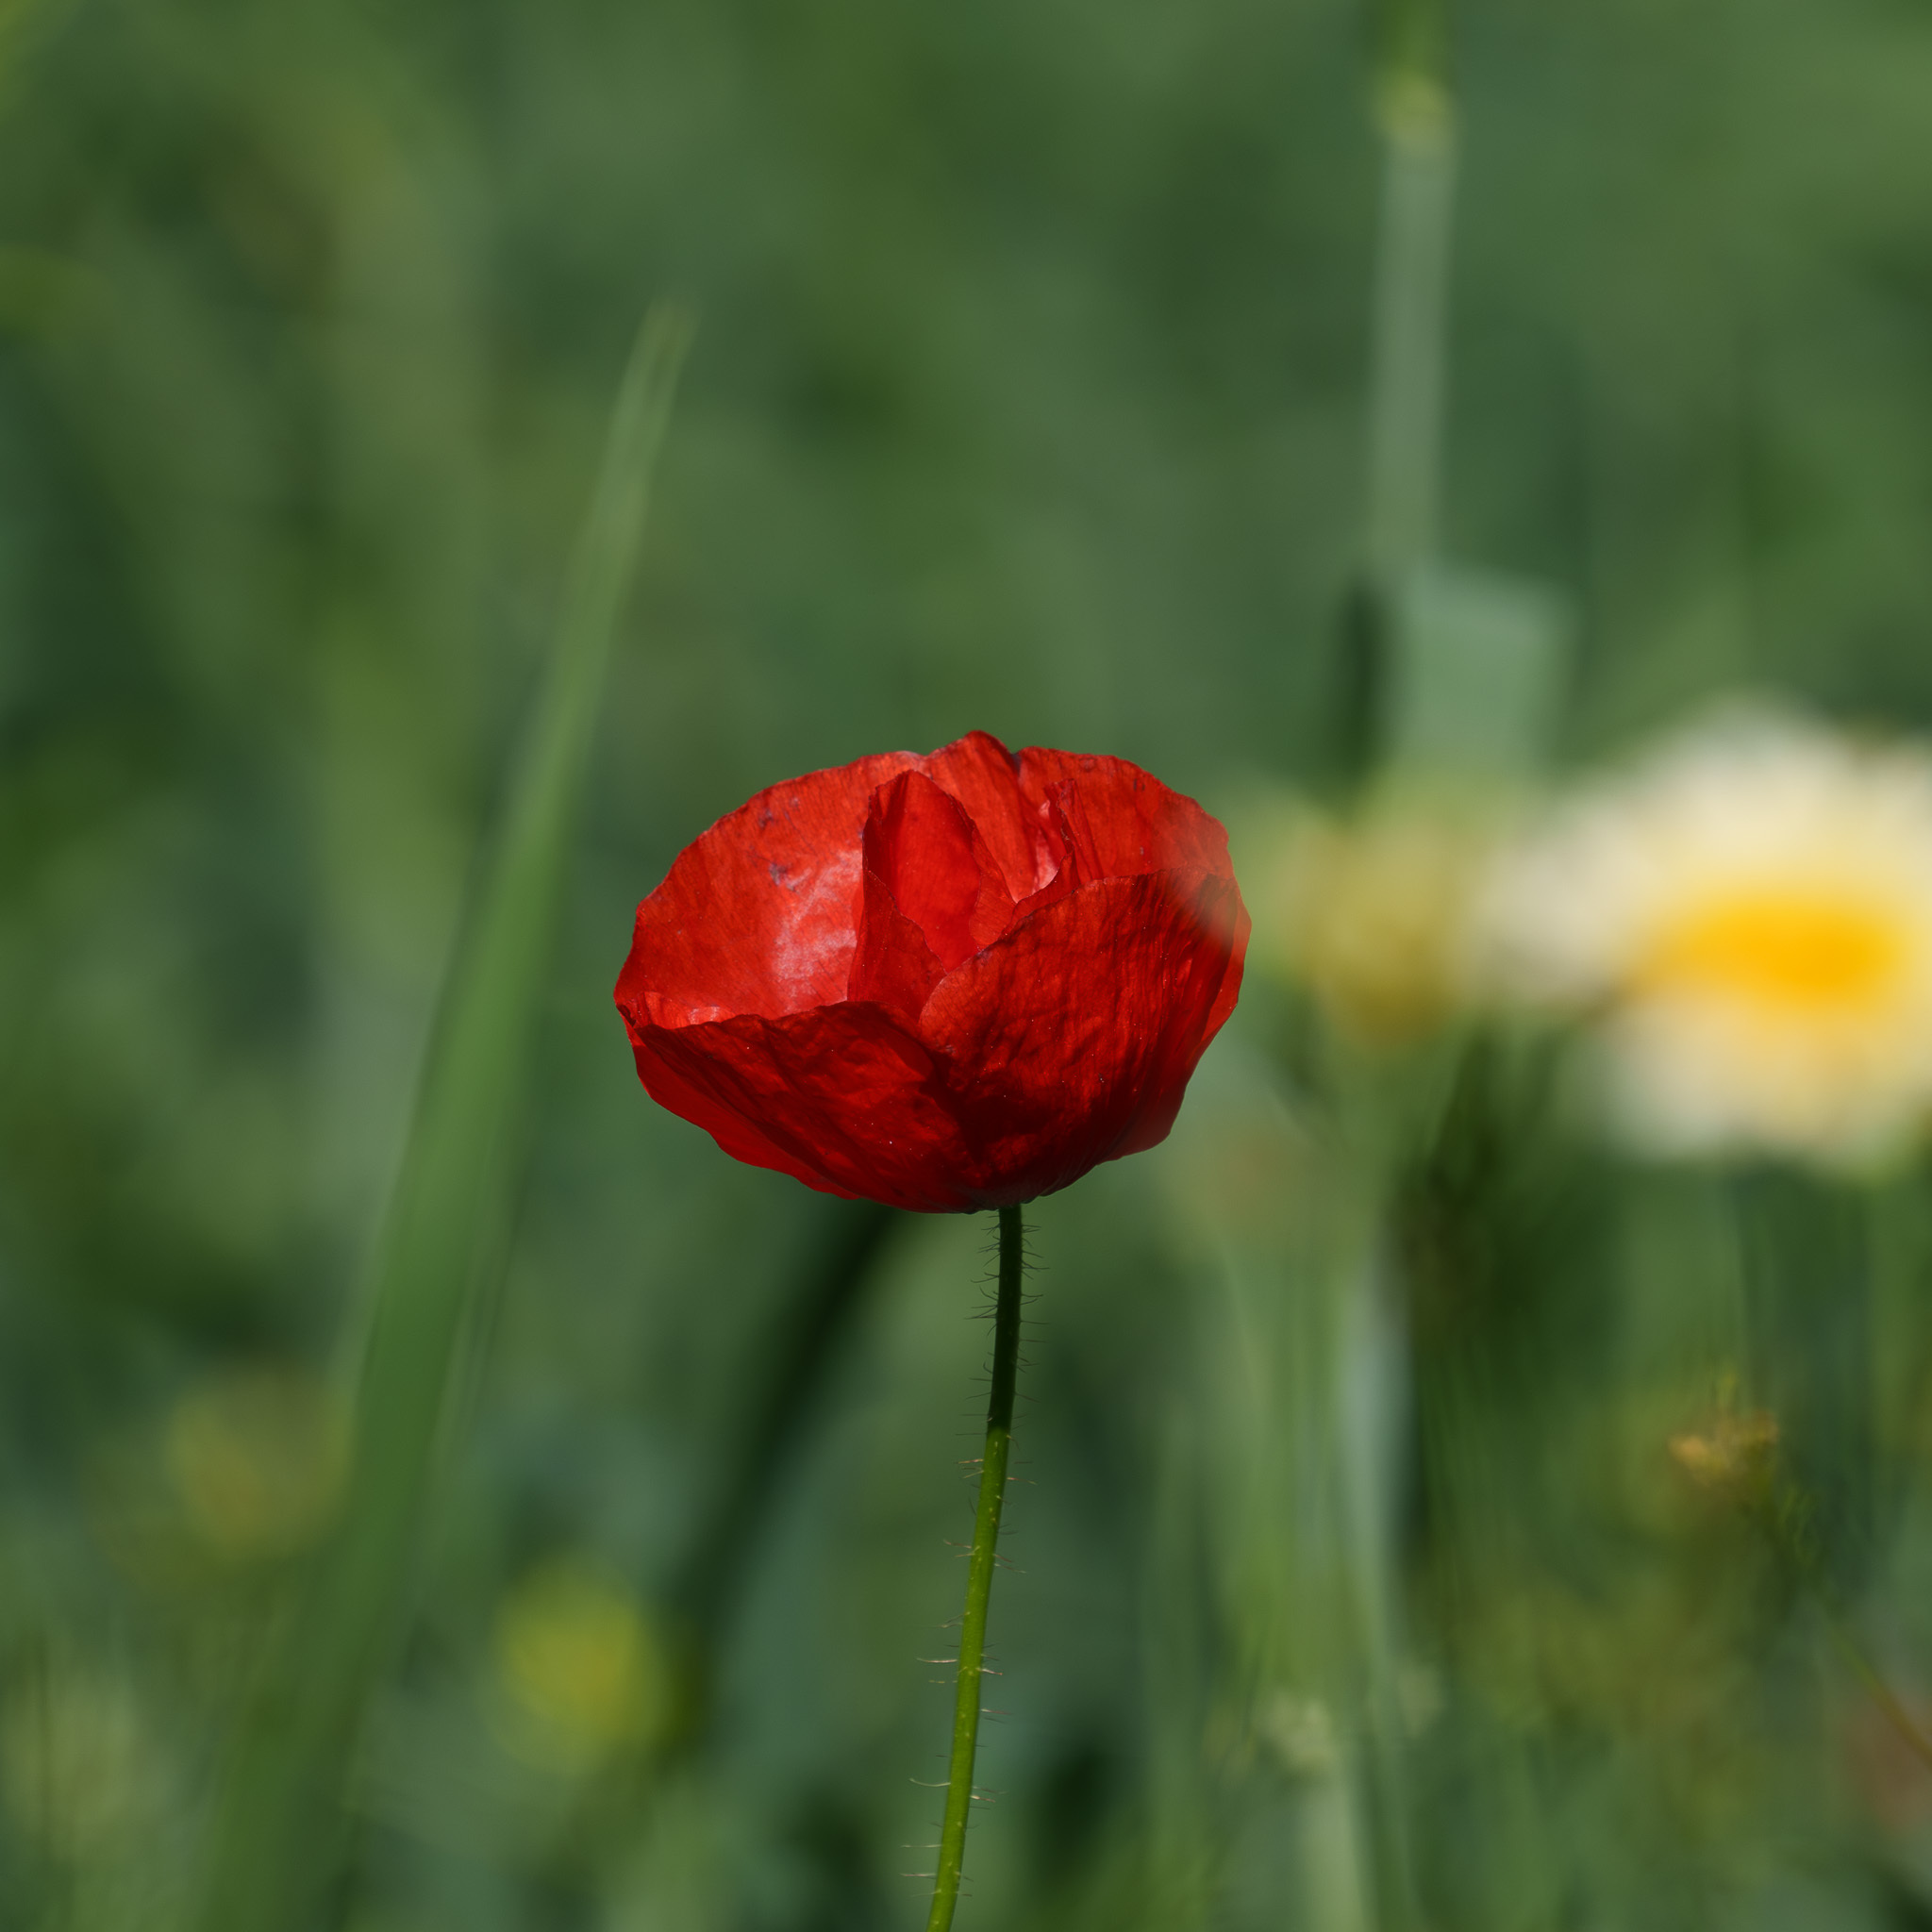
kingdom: Plantae
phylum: Tracheophyta
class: Magnoliopsida
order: Ranunculales
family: Papaveraceae
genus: Papaver
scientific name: Papaver rhoeas
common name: Corn poppy
